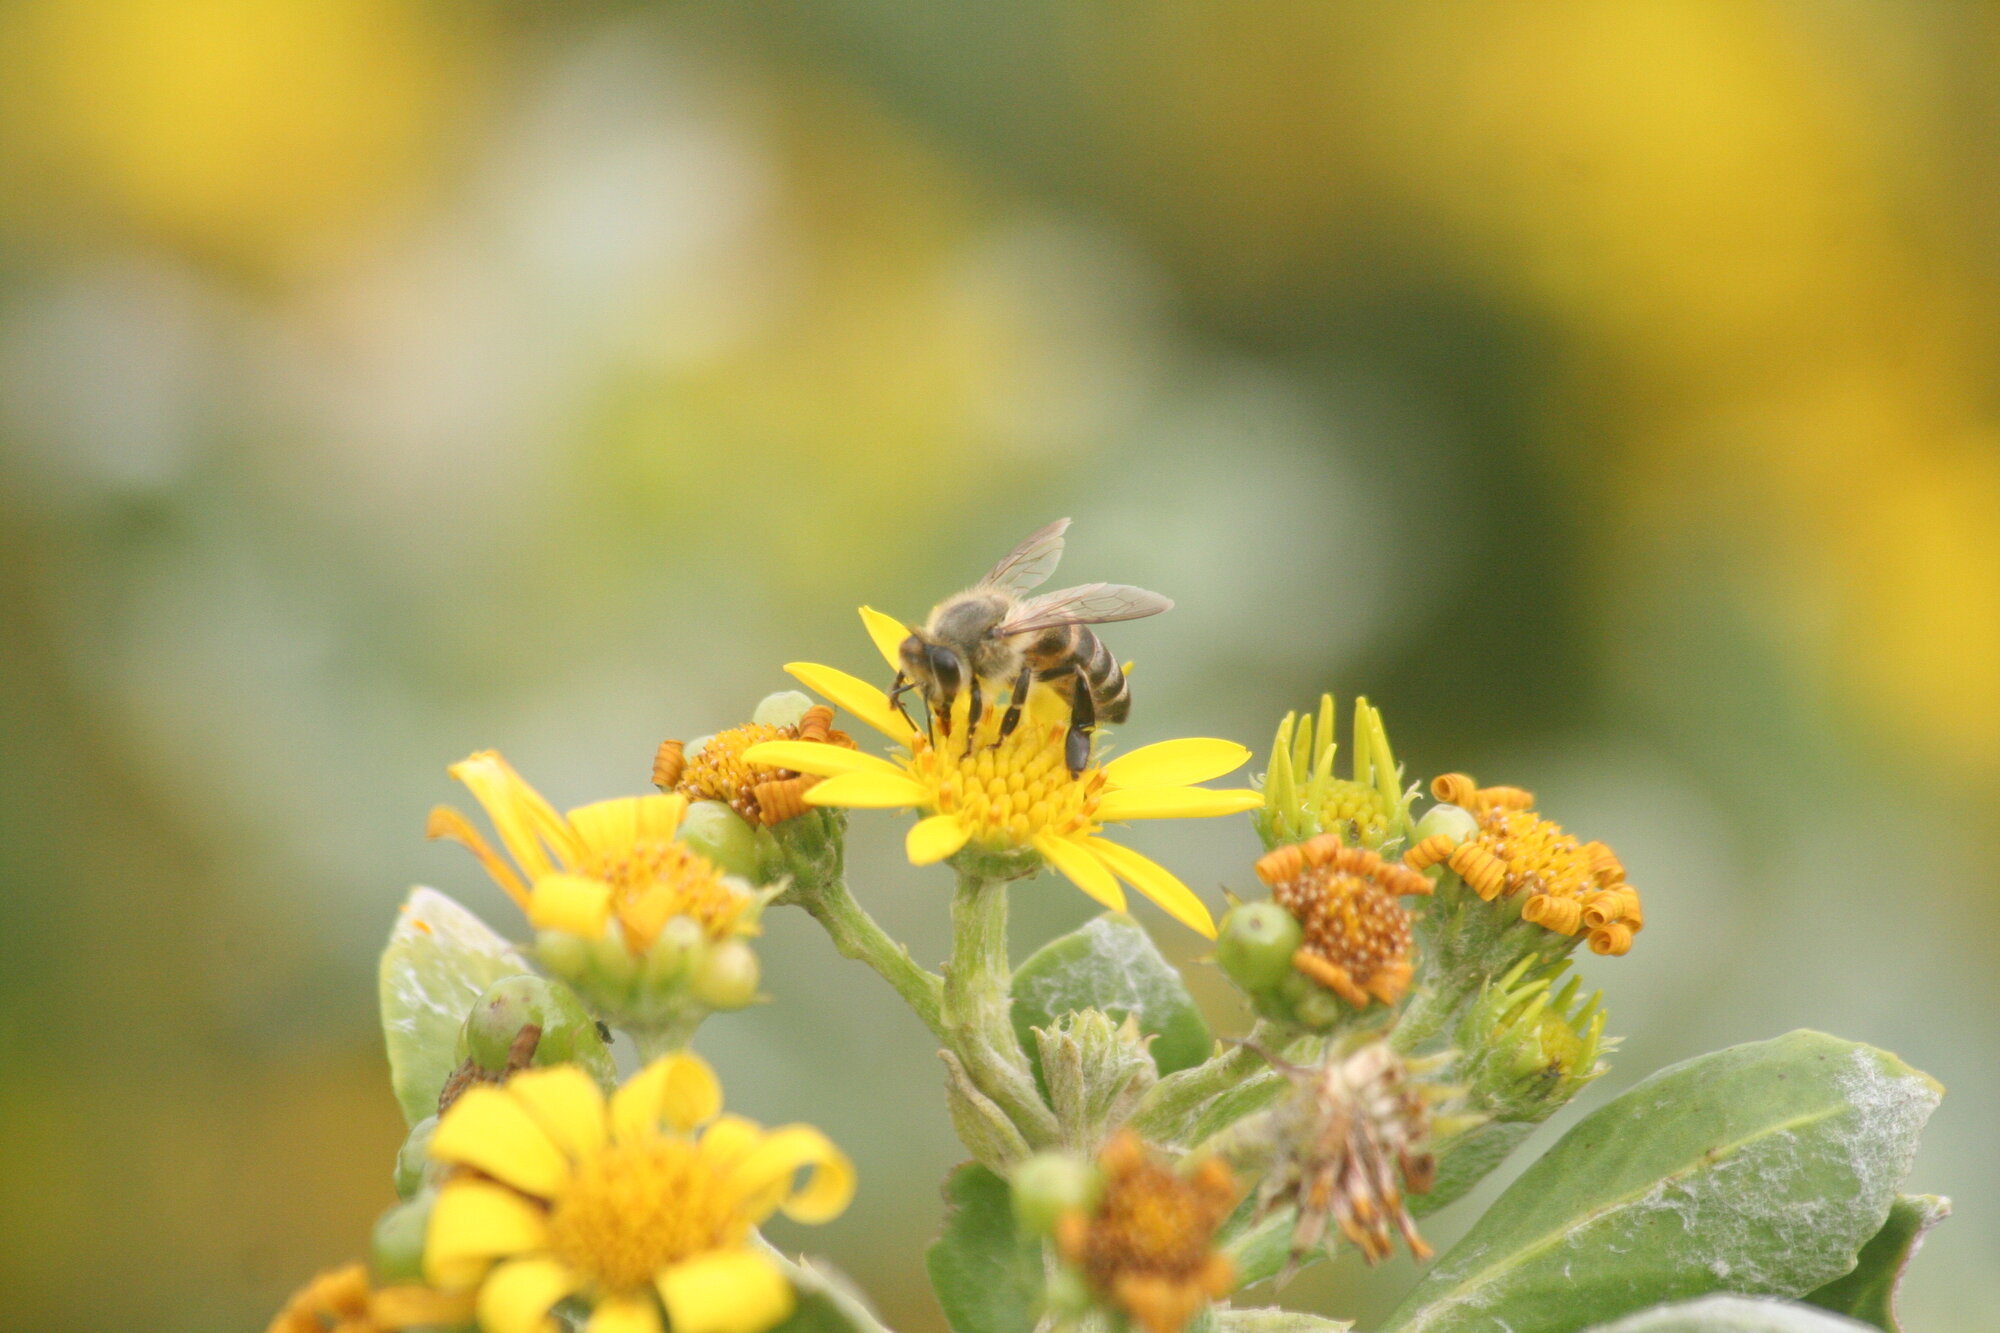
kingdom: Animalia
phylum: Arthropoda
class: Insecta
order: Hymenoptera
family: Apidae
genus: Apis
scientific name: Apis mellifera
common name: Honey bee
